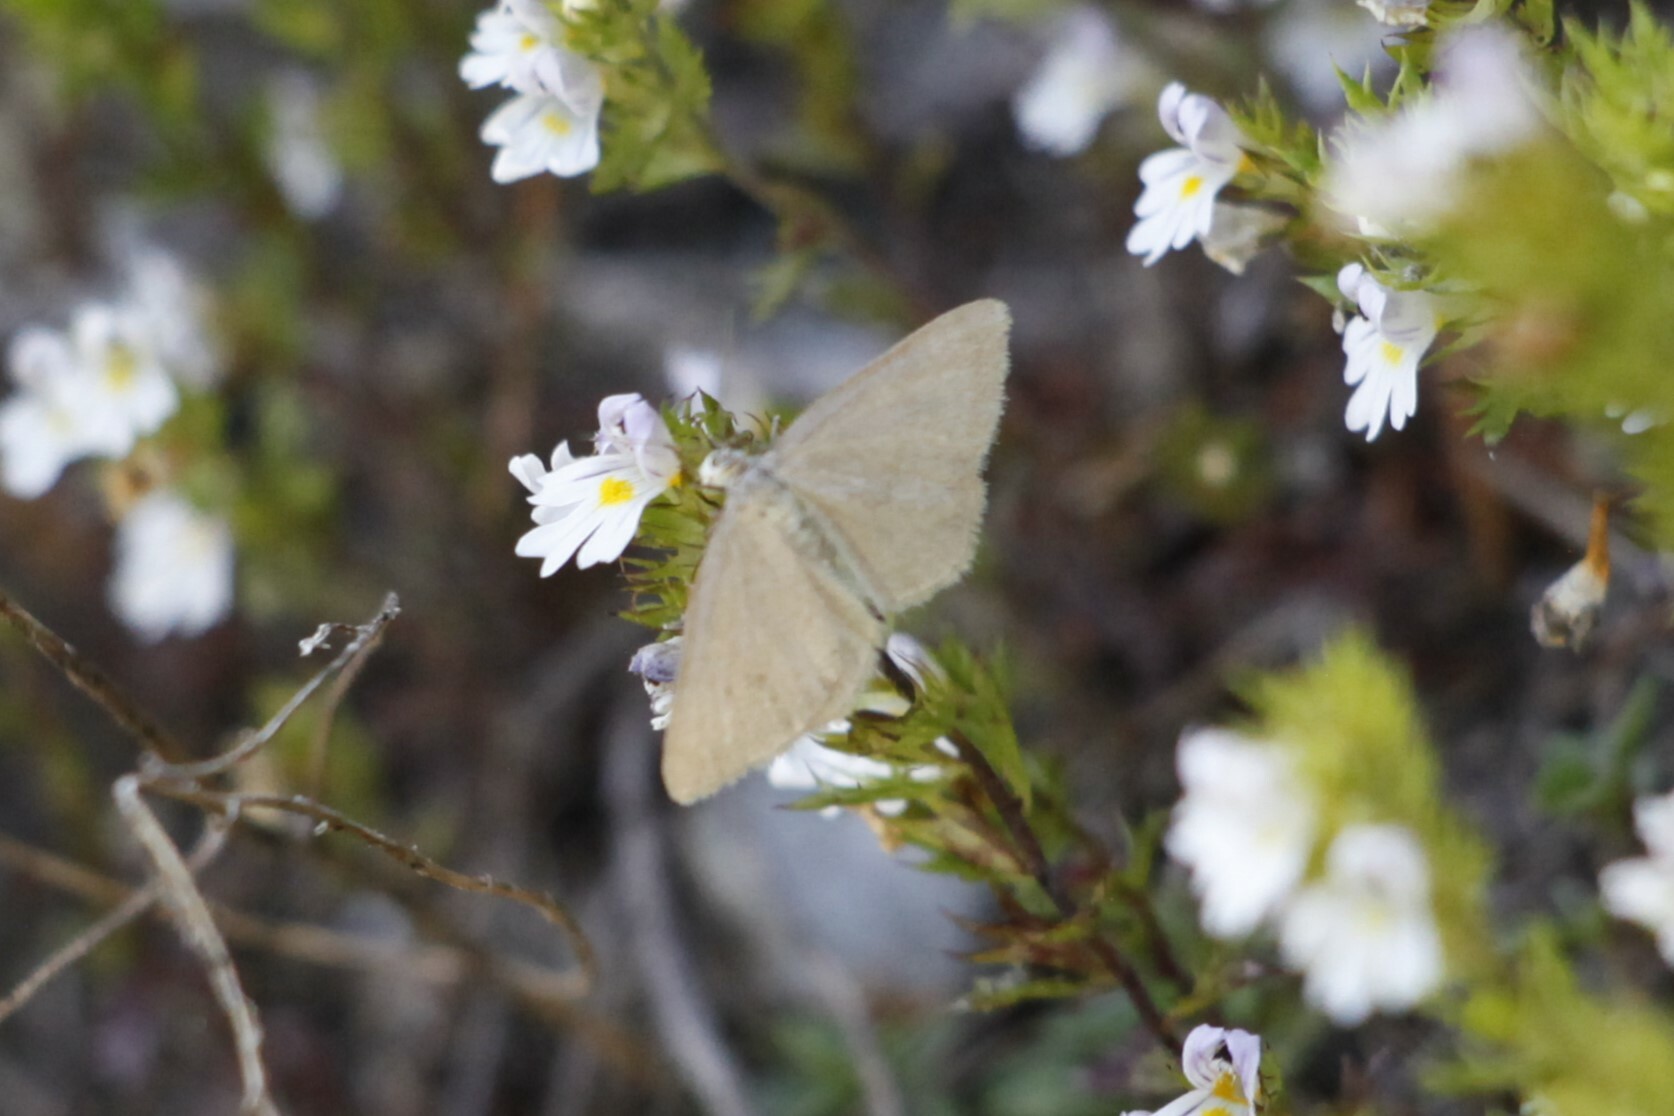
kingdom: Animalia
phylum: Arthropoda
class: Insecta
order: Lepidoptera
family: Geometridae
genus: Minoa
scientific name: Minoa murinata
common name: Drab looper
